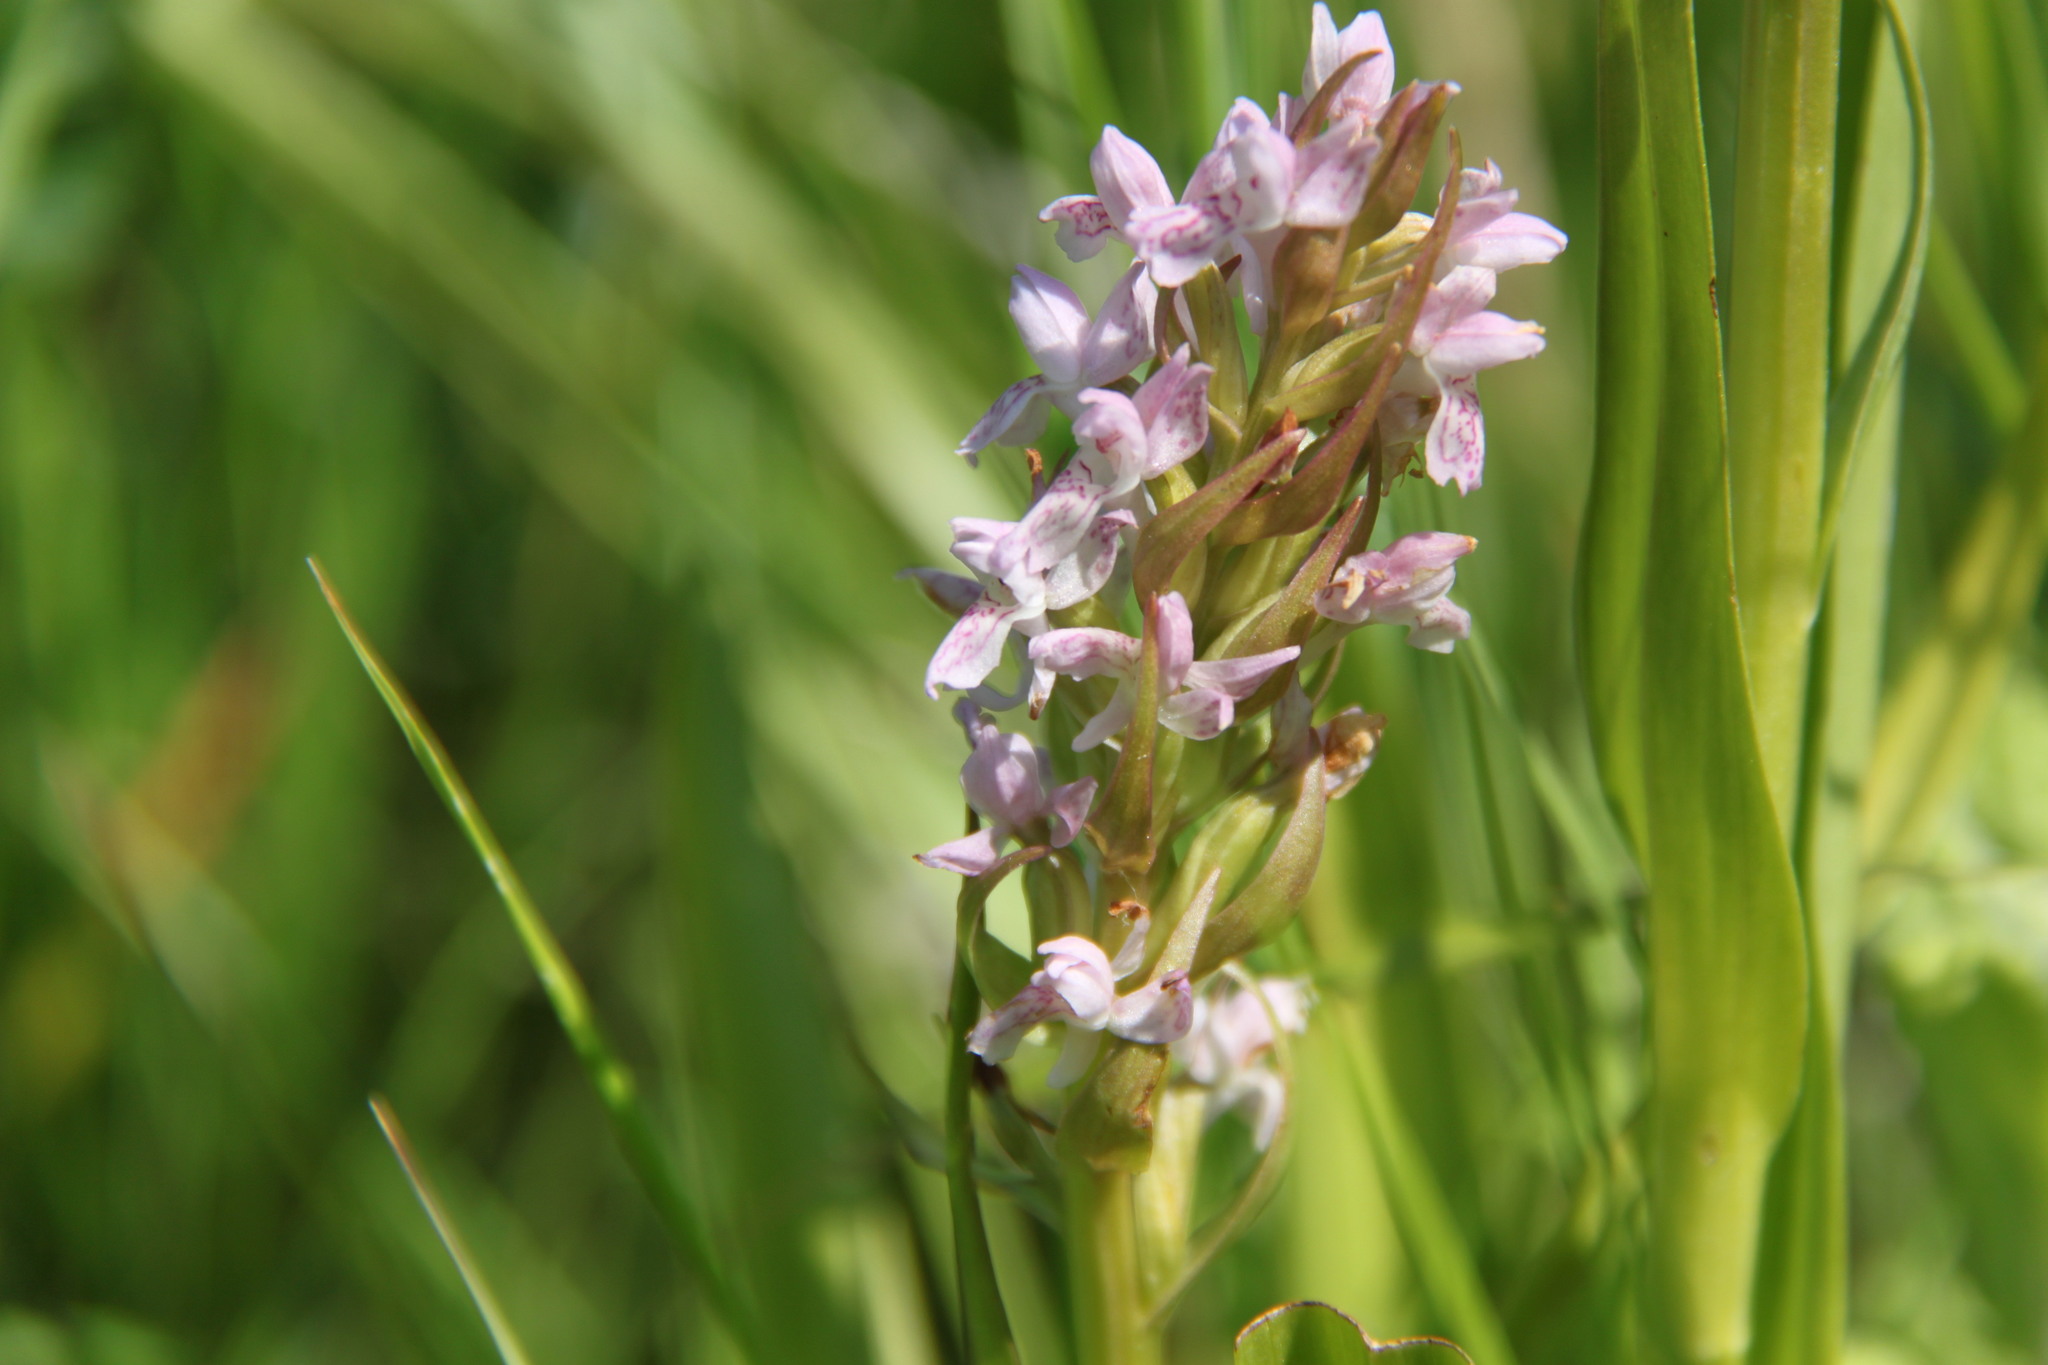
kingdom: Plantae
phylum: Tracheophyta
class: Liliopsida
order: Asparagales
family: Orchidaceae
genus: Dactylorhiza
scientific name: Dactylorhiza incarnata
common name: Early marsh-orchid
